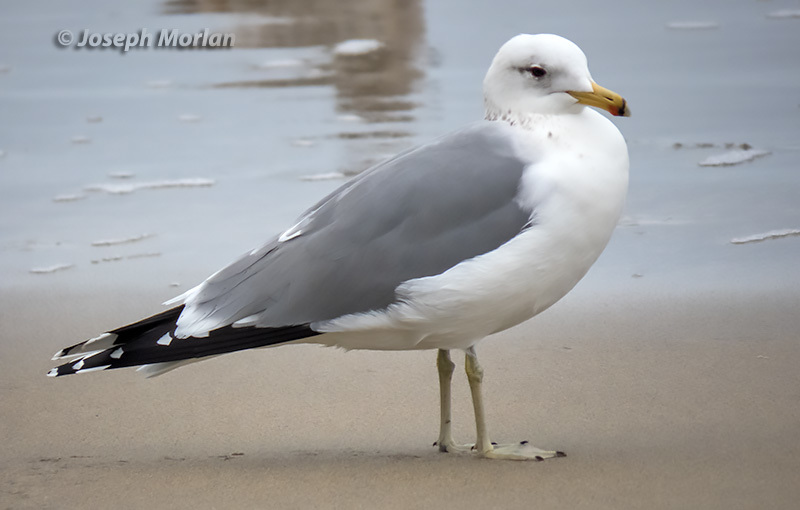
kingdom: Animalia
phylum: Chordata
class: Aves
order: Charadriiformes
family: Laridae
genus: Larus
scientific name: Larus californicus
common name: California gull
